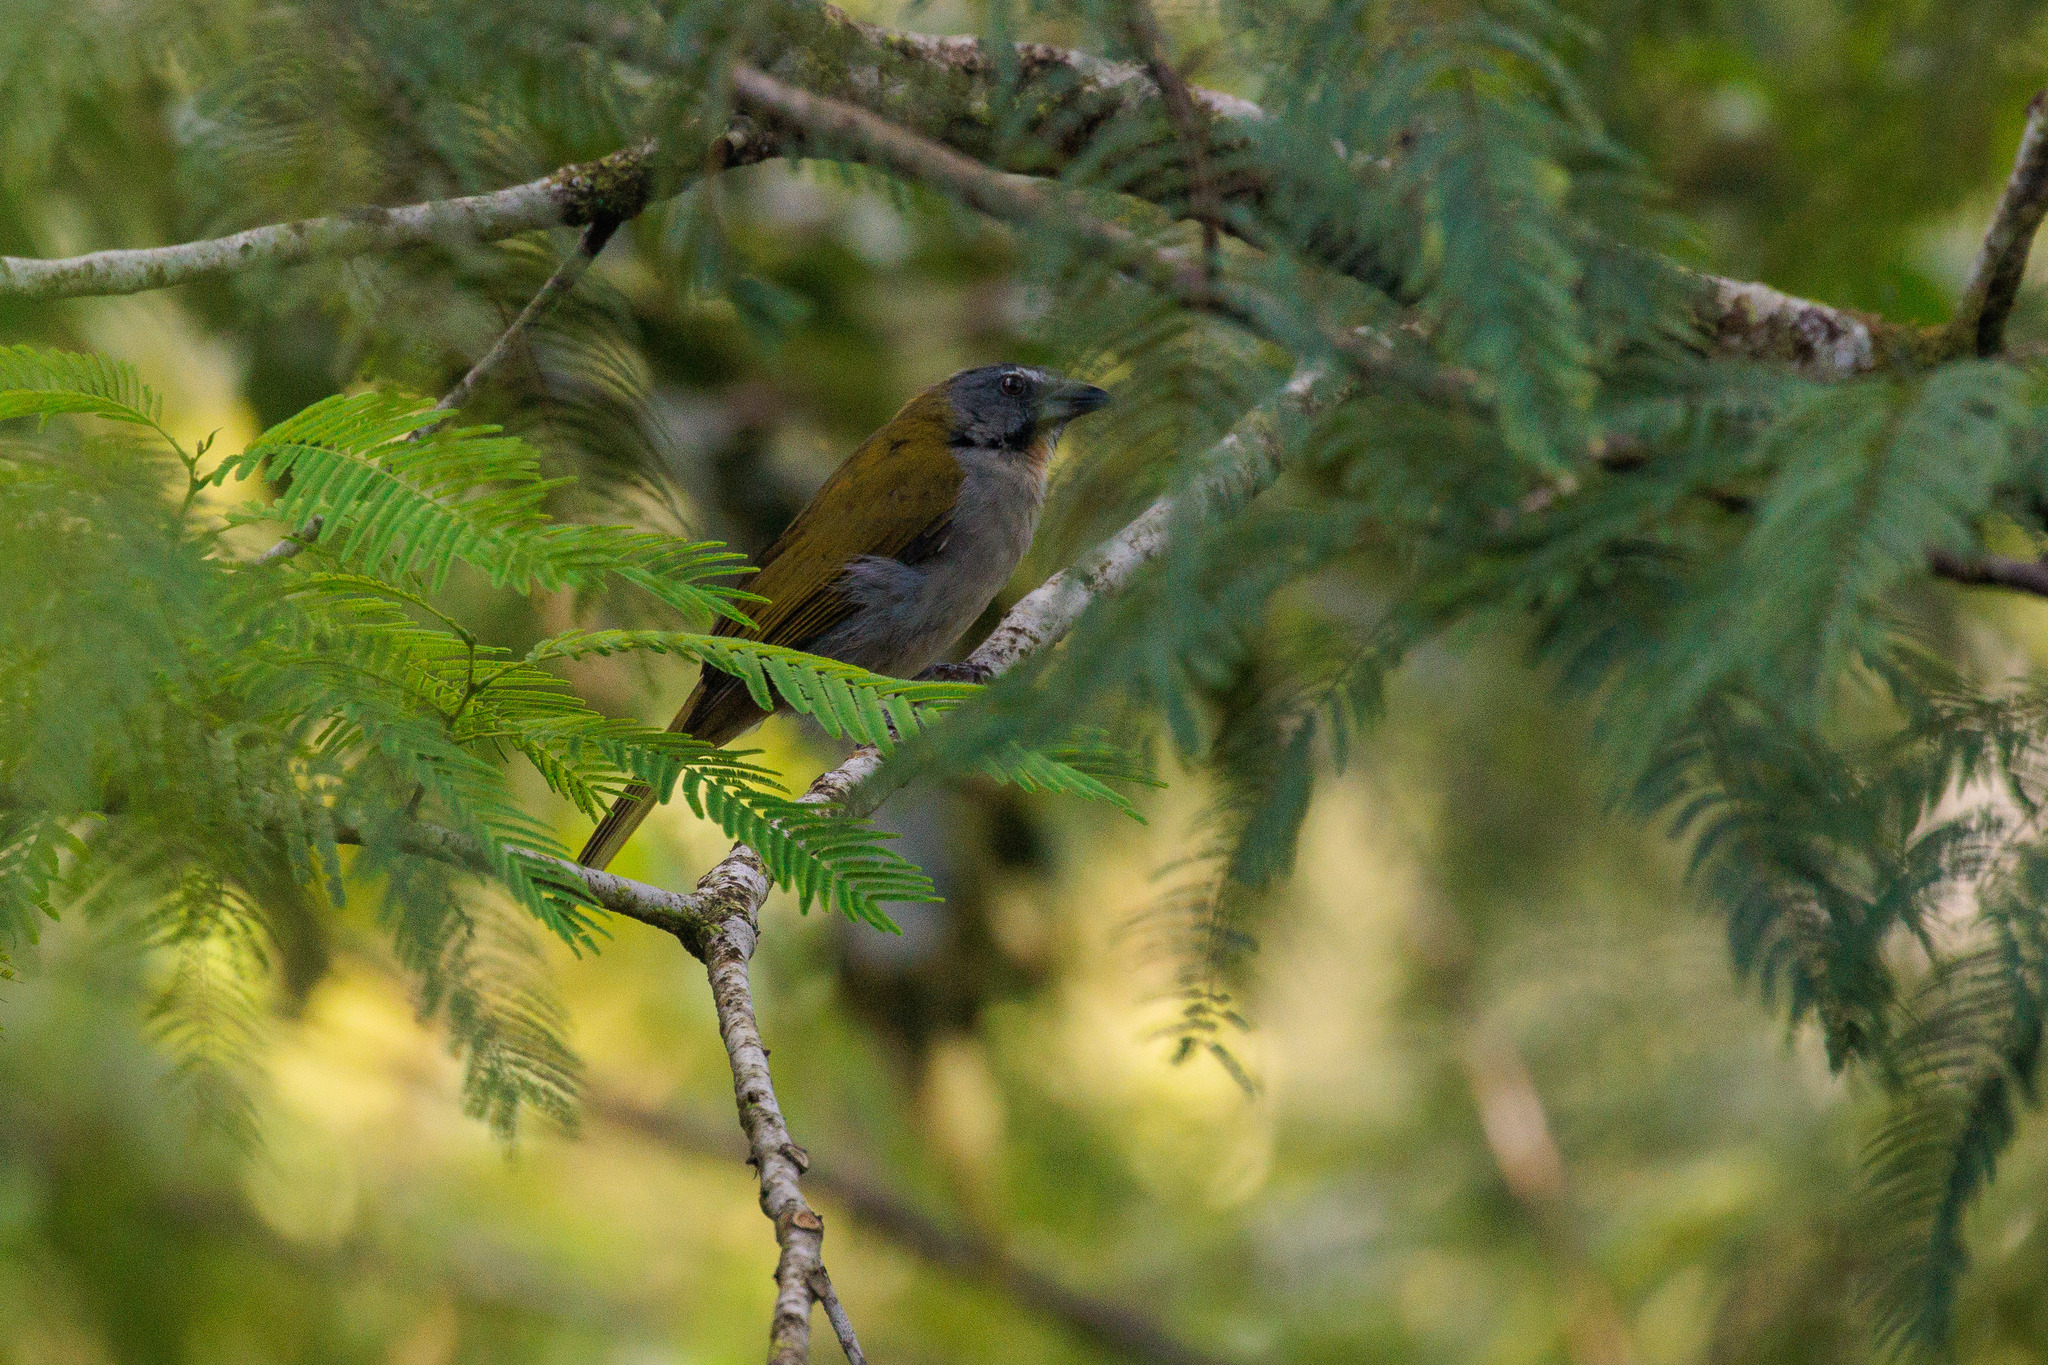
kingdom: Animalia
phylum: Chordata
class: Aves
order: Passeriformes
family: Thraupidae
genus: Saltator
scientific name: Saltator maximus
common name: Buff-throated saltator
